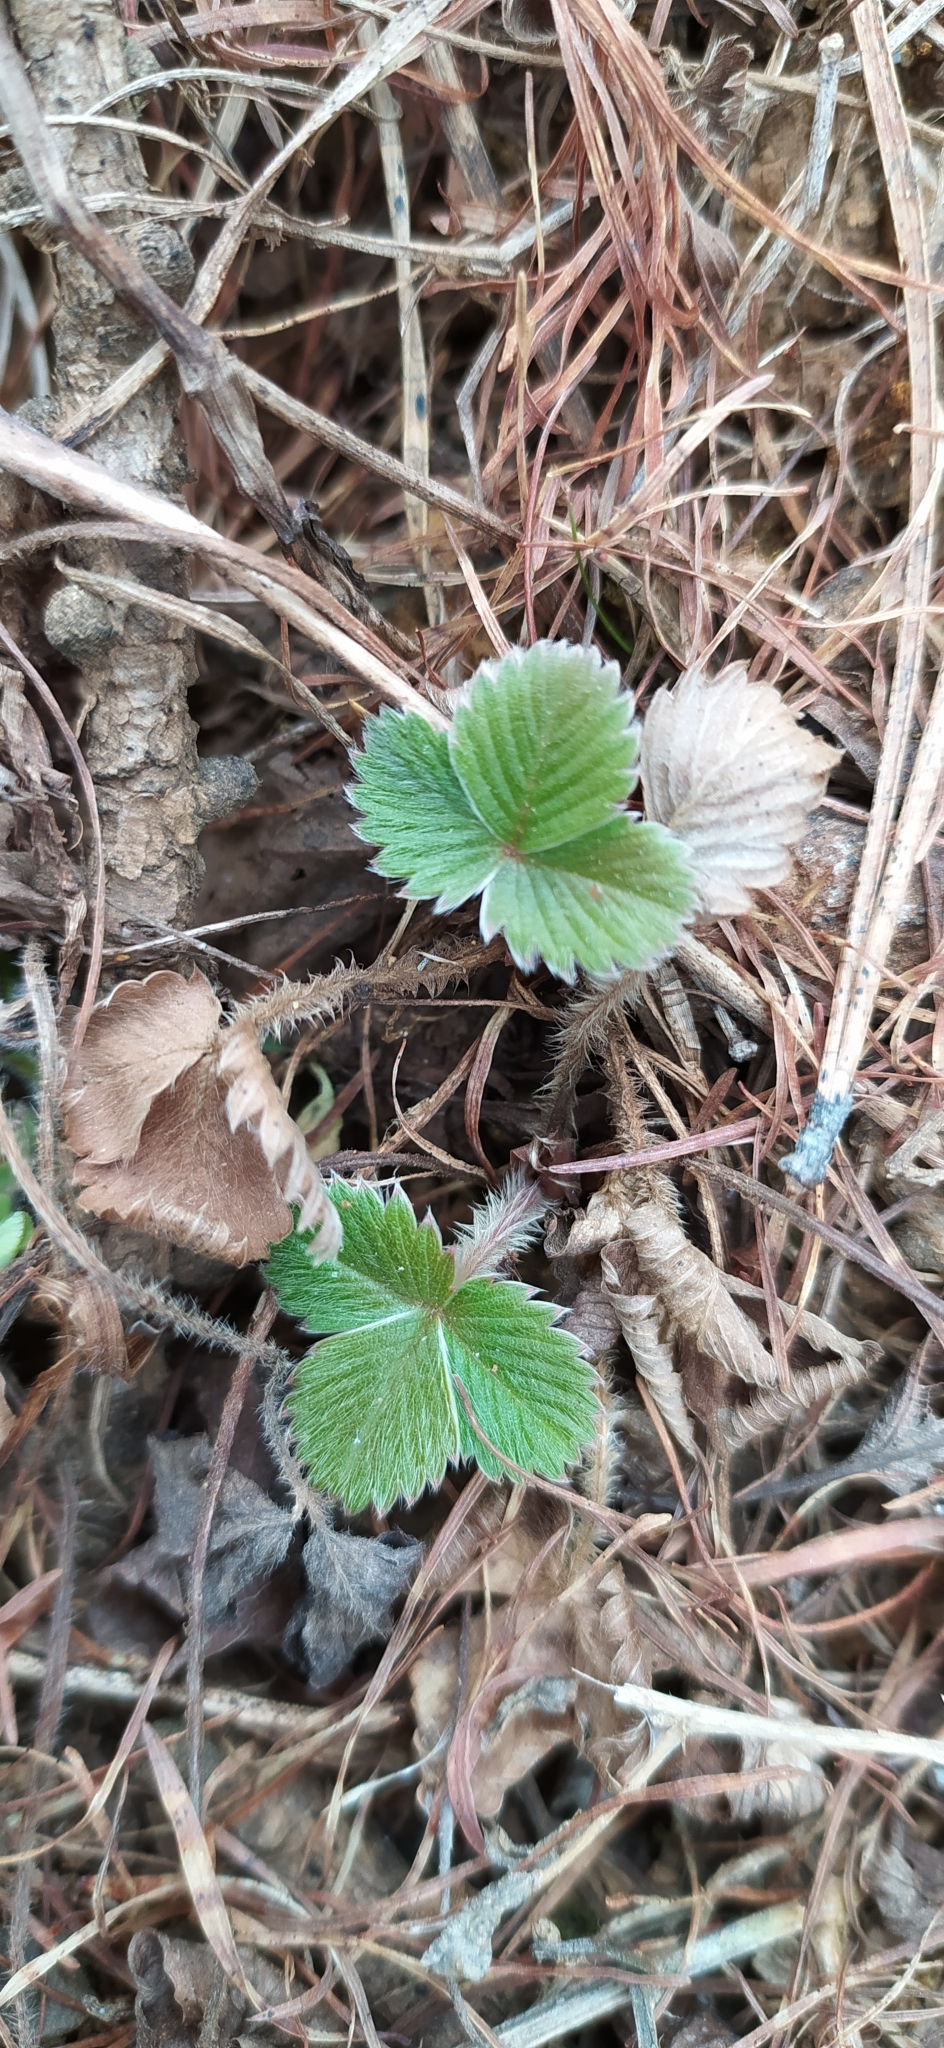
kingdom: Plantae
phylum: Tracheophyta
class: Magnoliopsida
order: Rosales
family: Rosaceae
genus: Fragaria
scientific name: Fragaria vesca
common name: Wild strawberry
